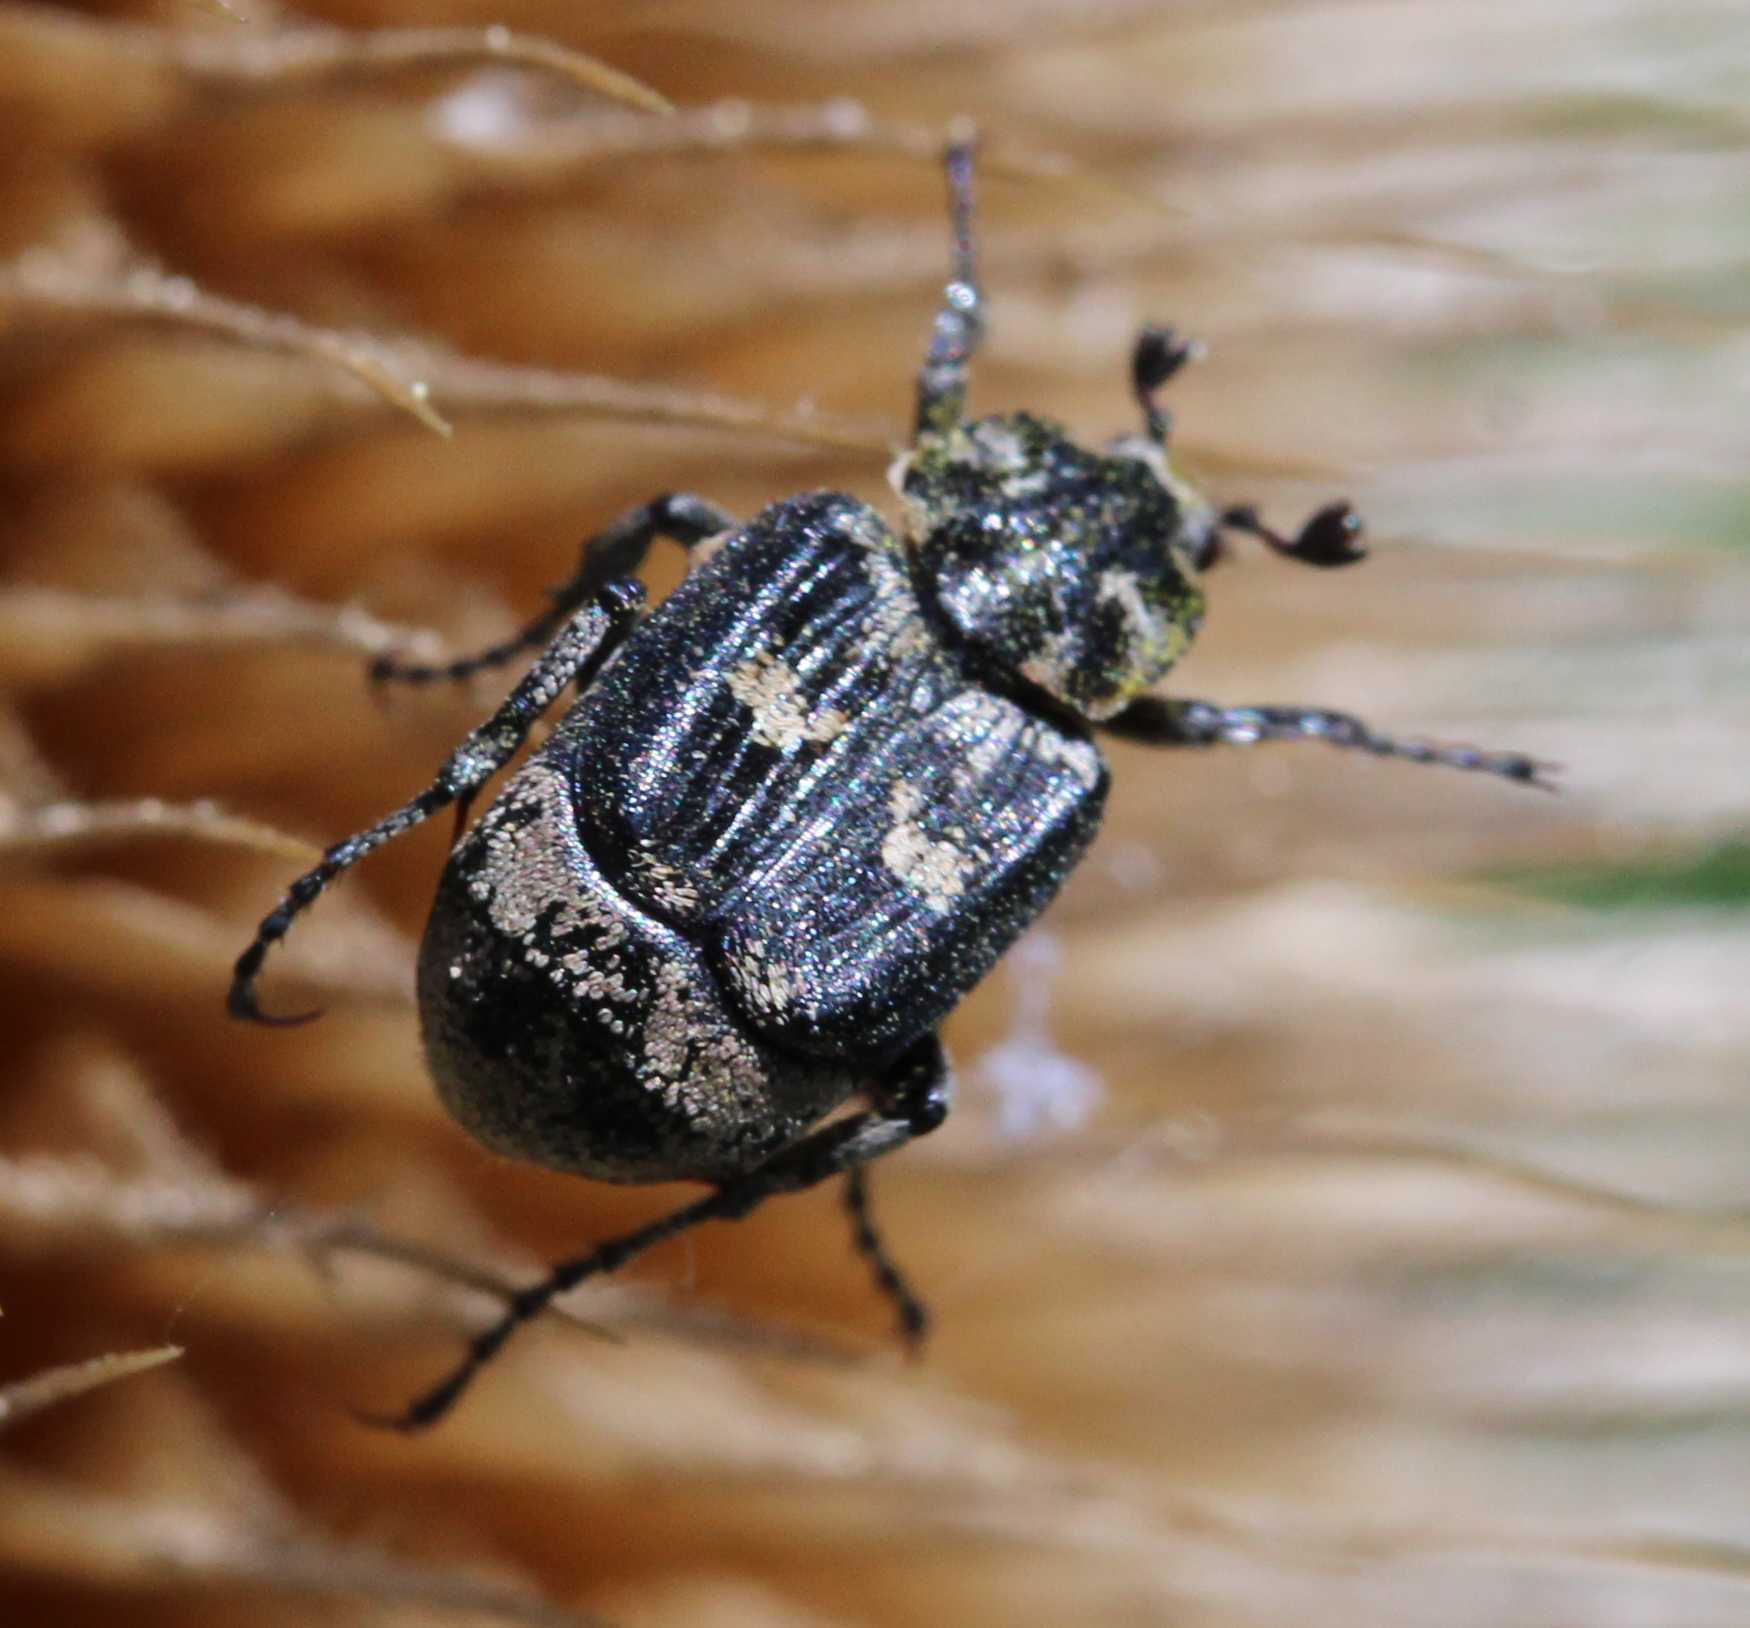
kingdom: Animalia
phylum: Arthropoda
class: Insecta
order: Coleoptera
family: Scarabaeidae
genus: Valgus
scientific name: Valgus hemipterus
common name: Bug flower chafer
